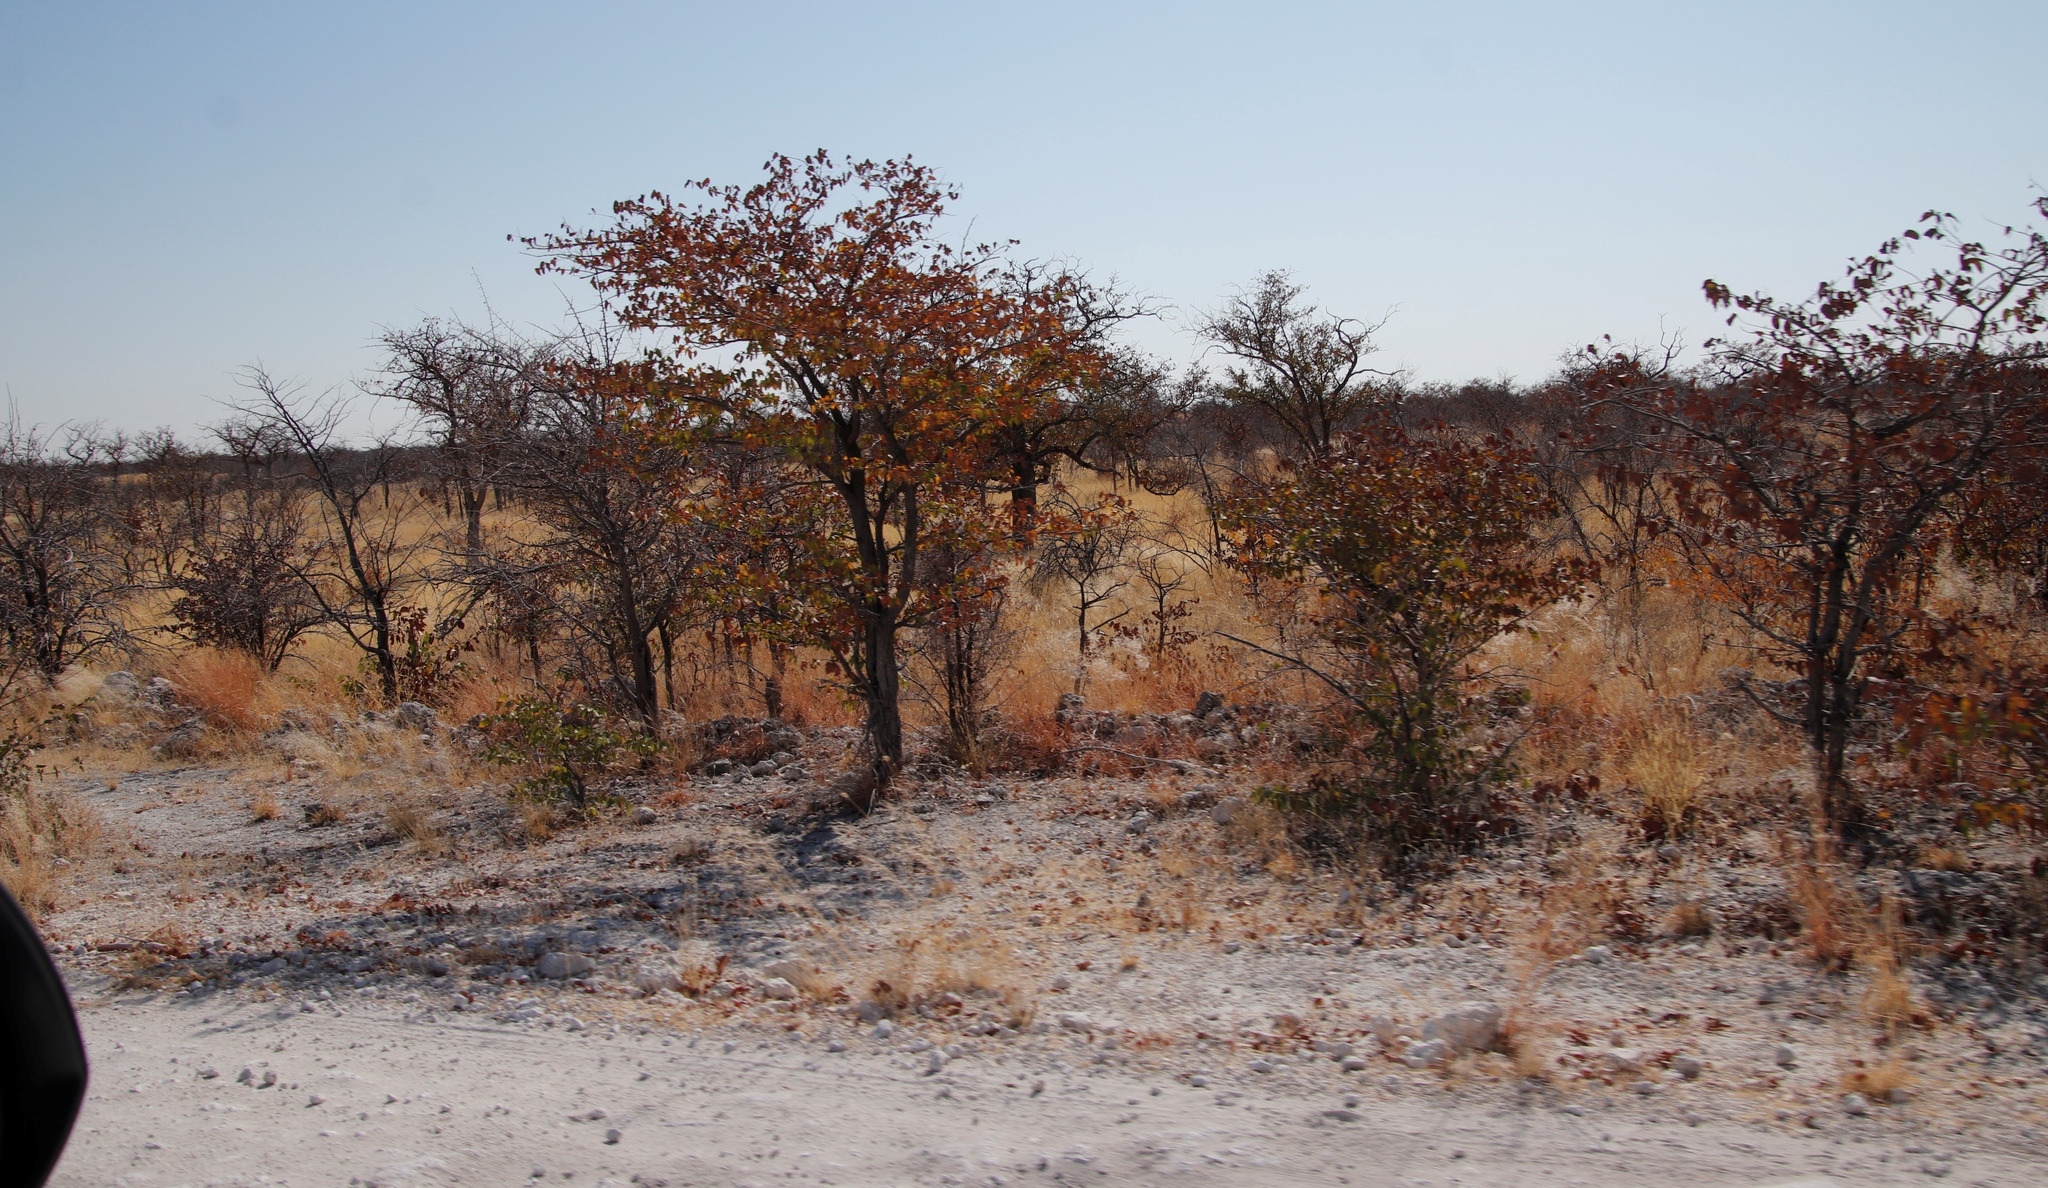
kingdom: Plantae
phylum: Tracheophyta
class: Magnoliopsida
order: Fabales
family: Fabaceae
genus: Colophospermum
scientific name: Colophospermum mopane
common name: Mopane
